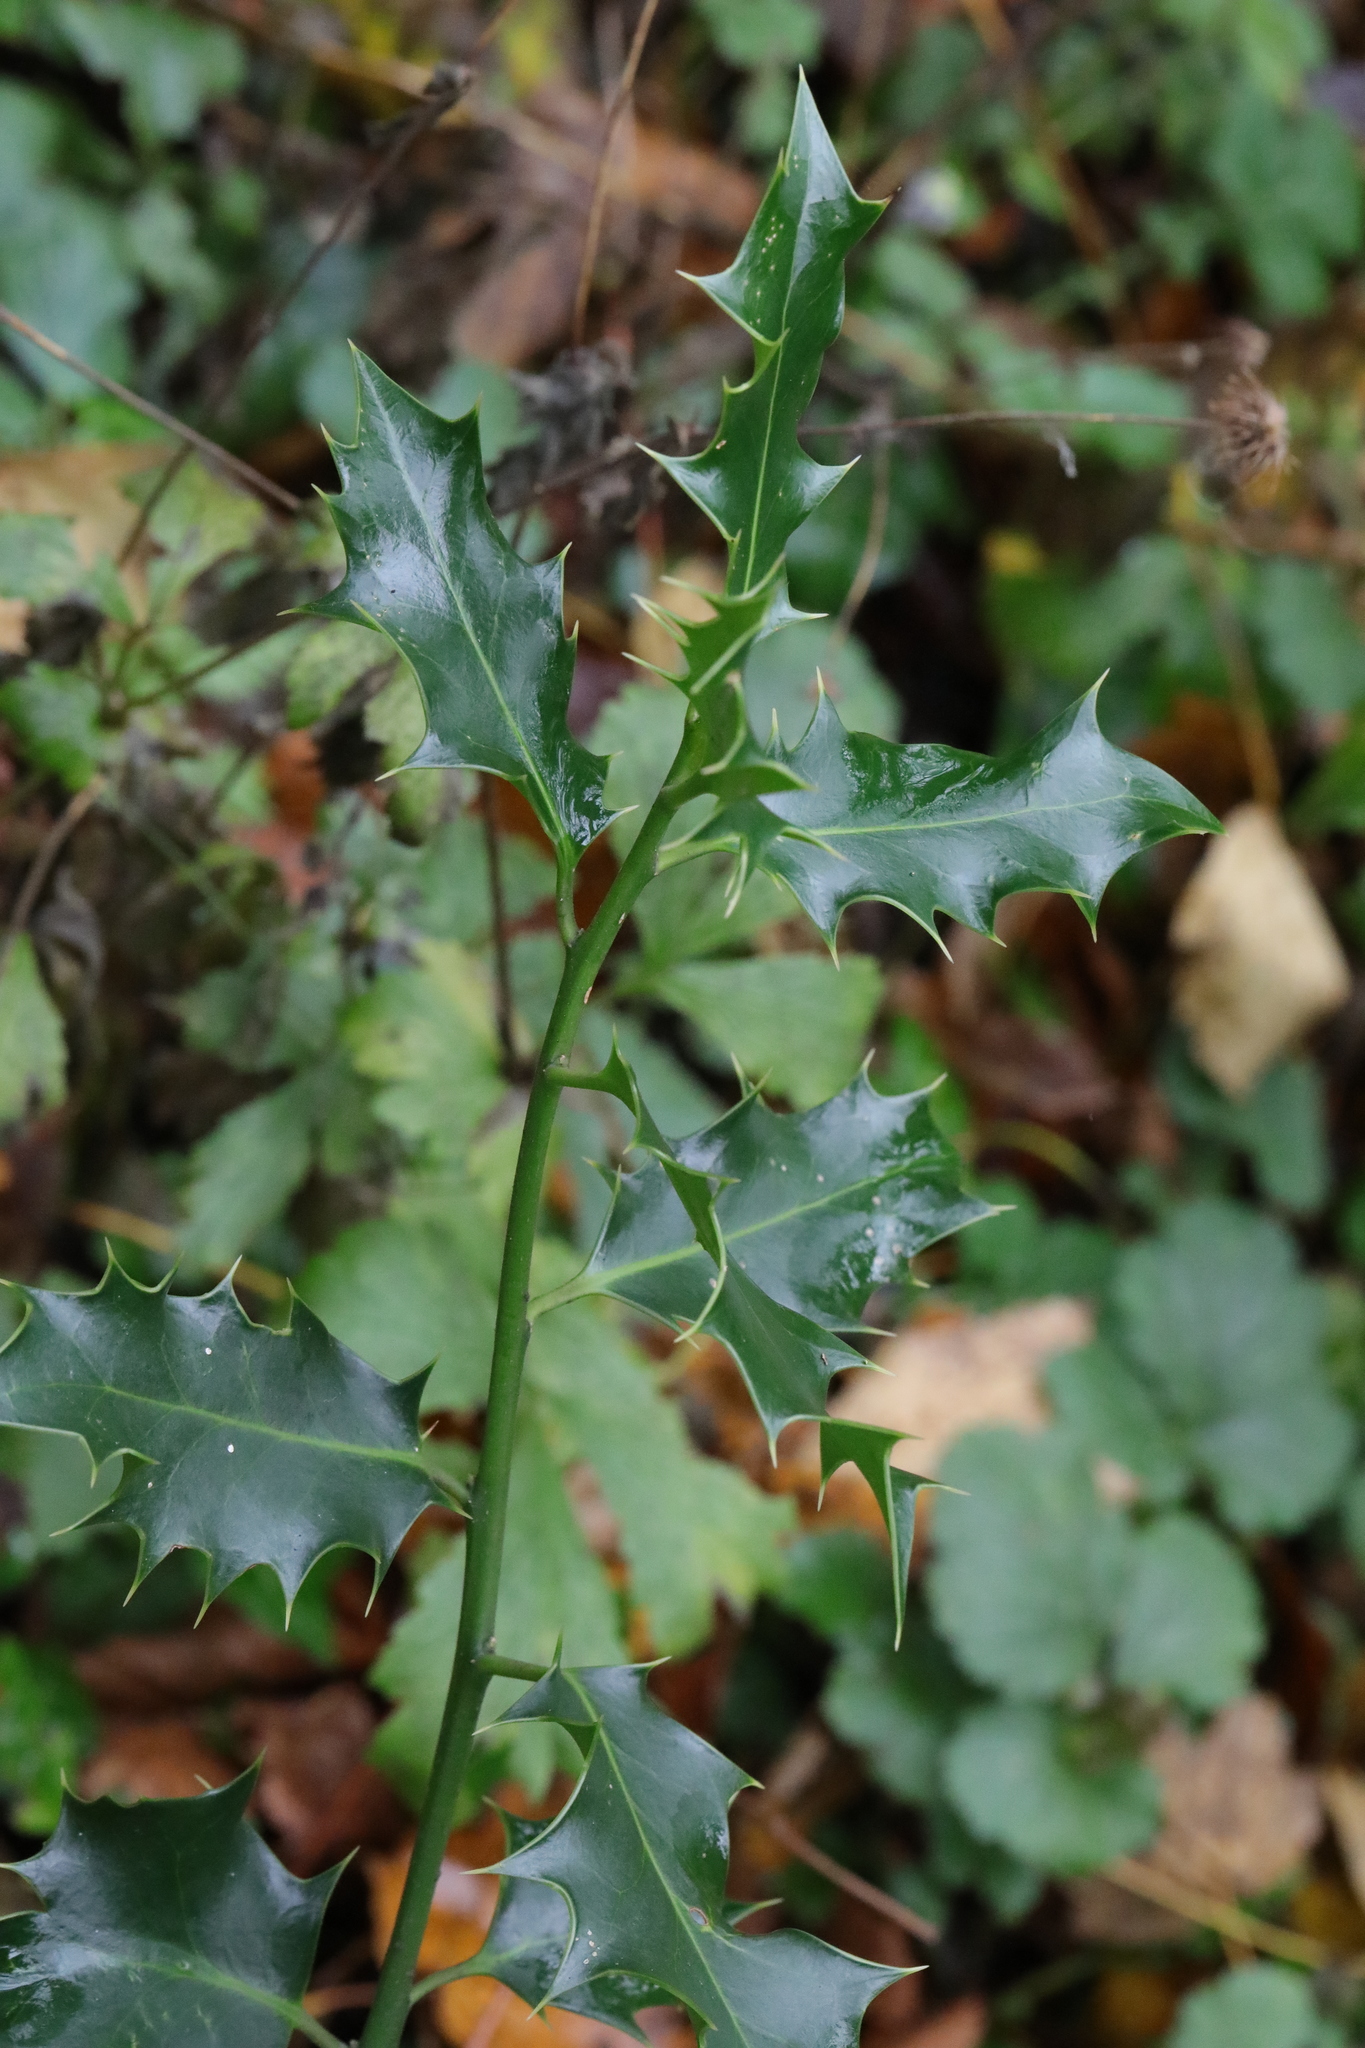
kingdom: Plantae
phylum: Tracheophyta
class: Magnoliopsida
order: Aquifoliales
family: Aquifoliaceae
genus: Ilex
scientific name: Ilex aquifolium
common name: English holly
